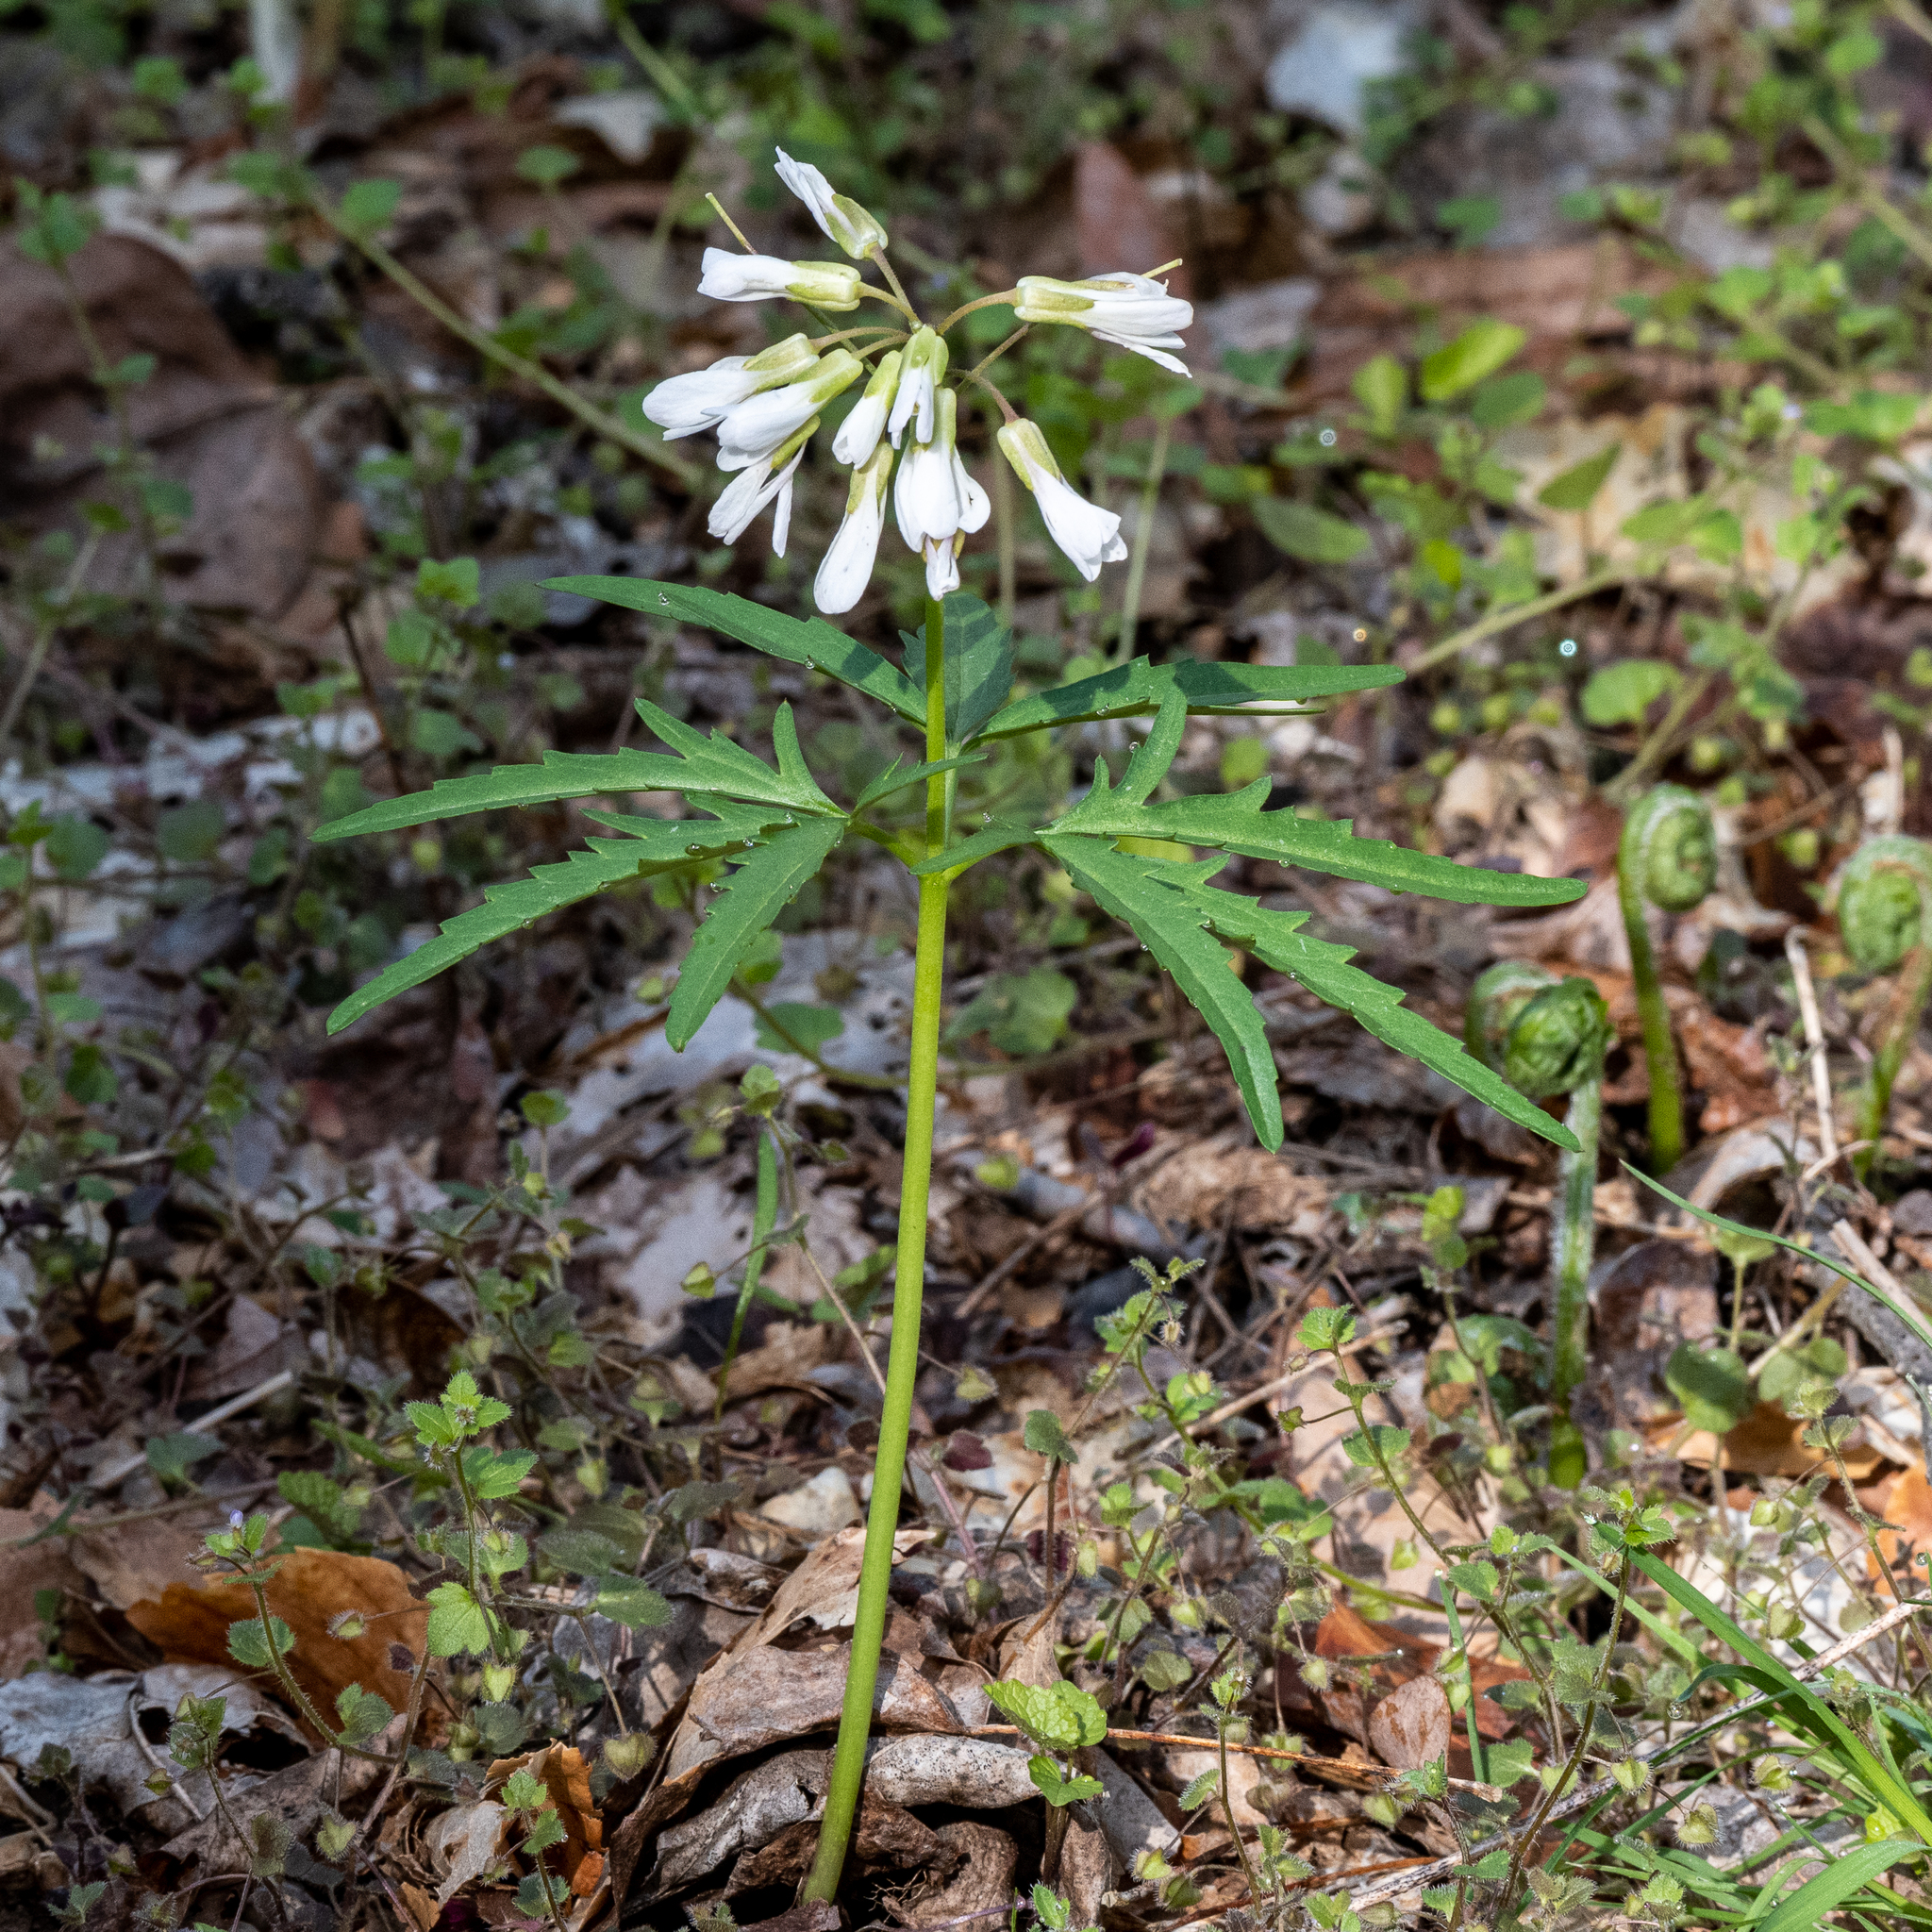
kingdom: Plantae
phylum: Tracheophyta
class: Magnoliopsida
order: Brassicales
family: Brassicaceae
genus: Cardamine
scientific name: Cardamine concatenata
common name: Cut-leaf toothcup
